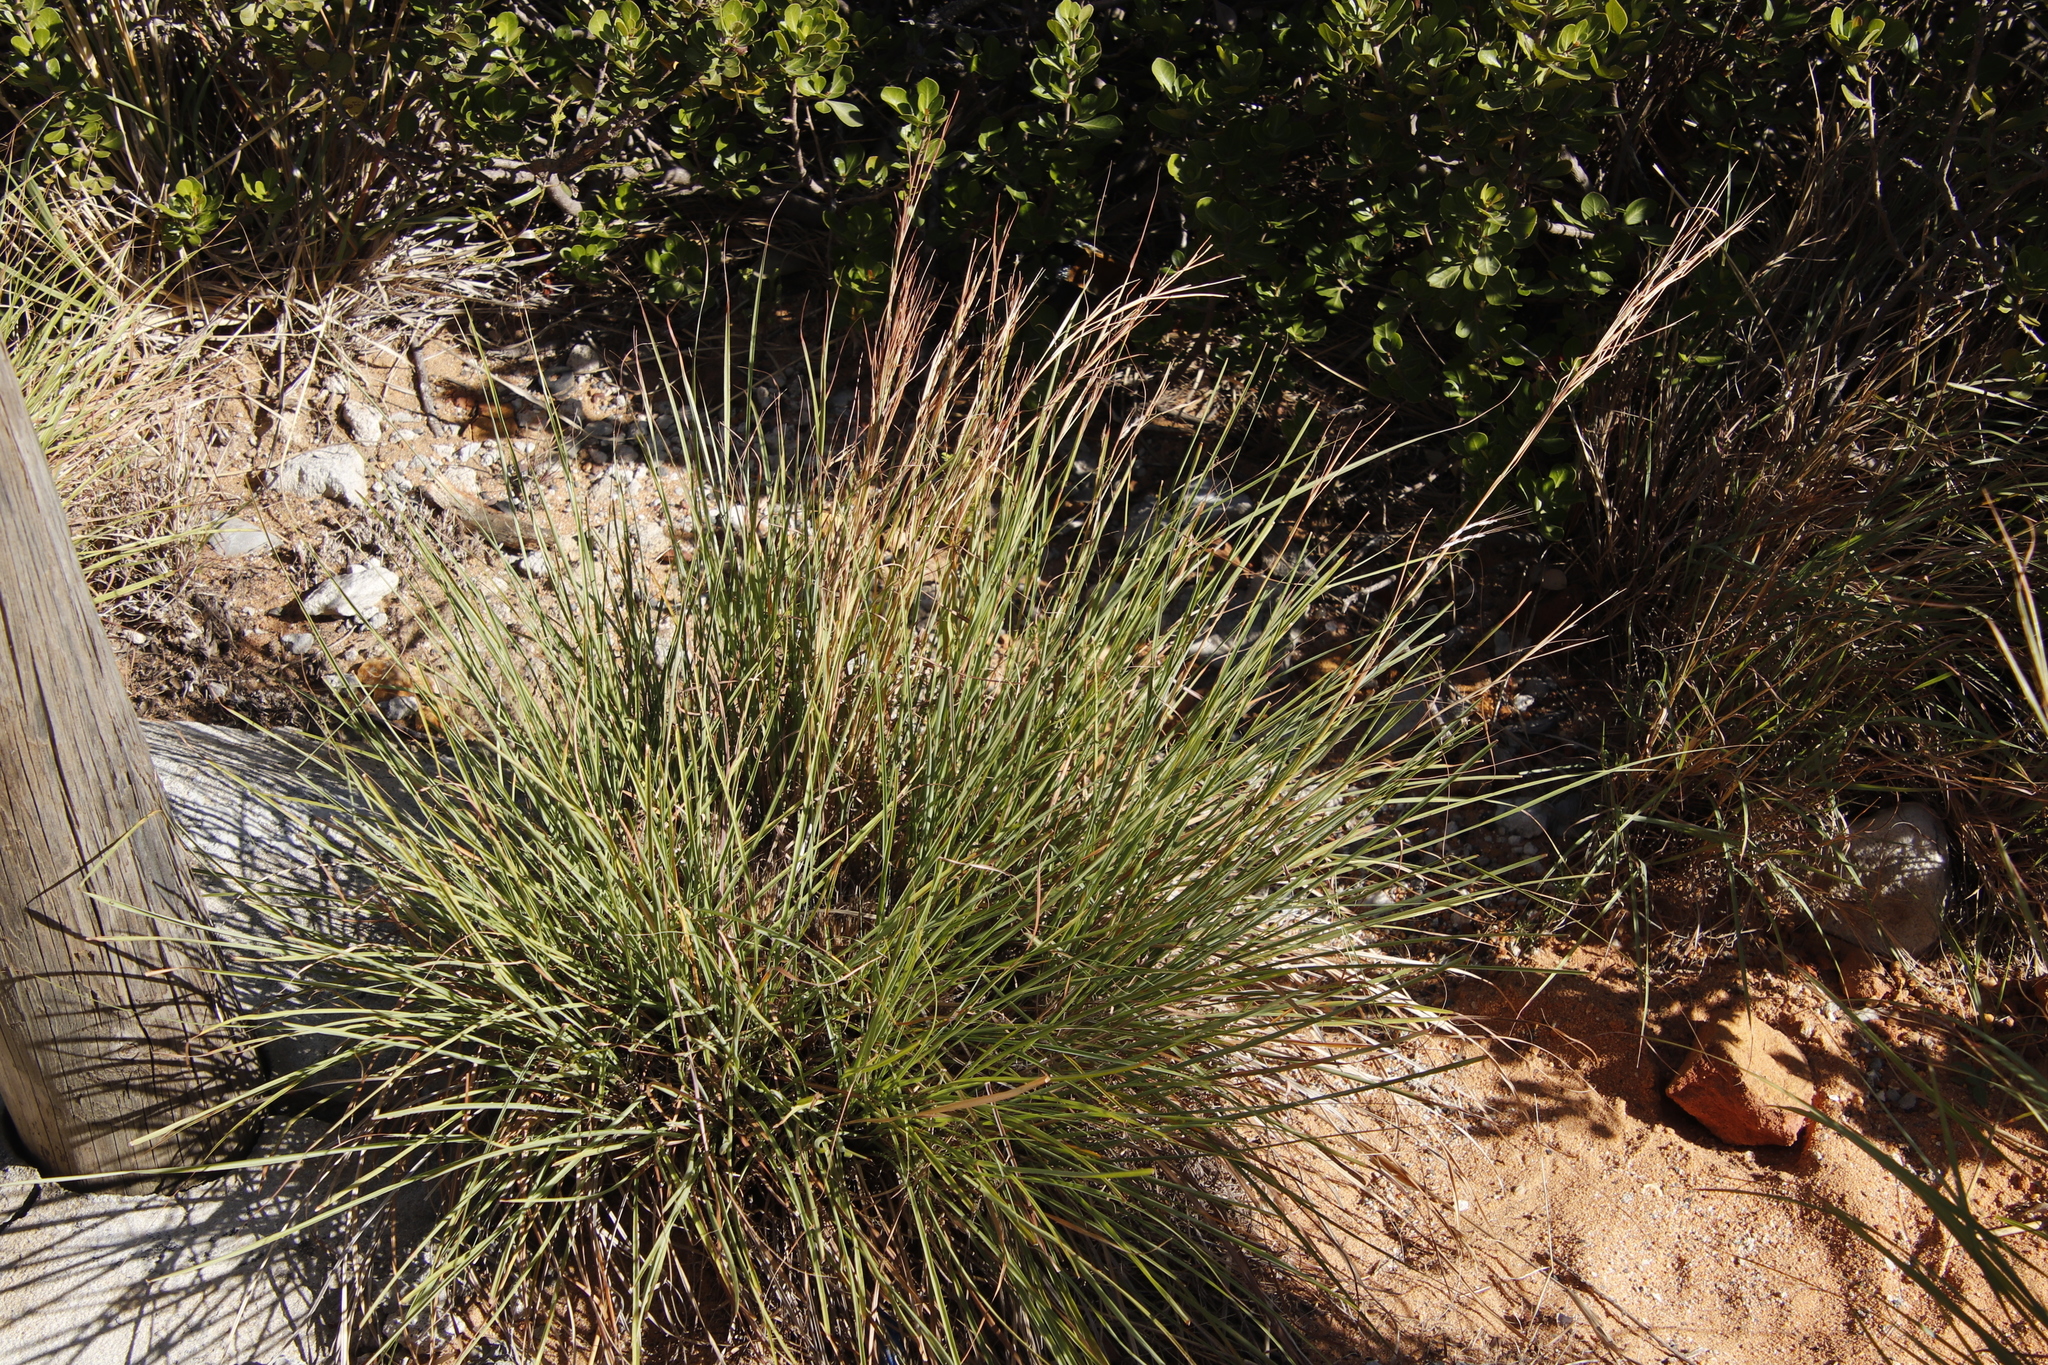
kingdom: Plantae
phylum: Tracheophyta
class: Liliopsida
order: Poales
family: Poaceae
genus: Hyparrhenia
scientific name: Hyparrhenia hirta
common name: Thatching grass
